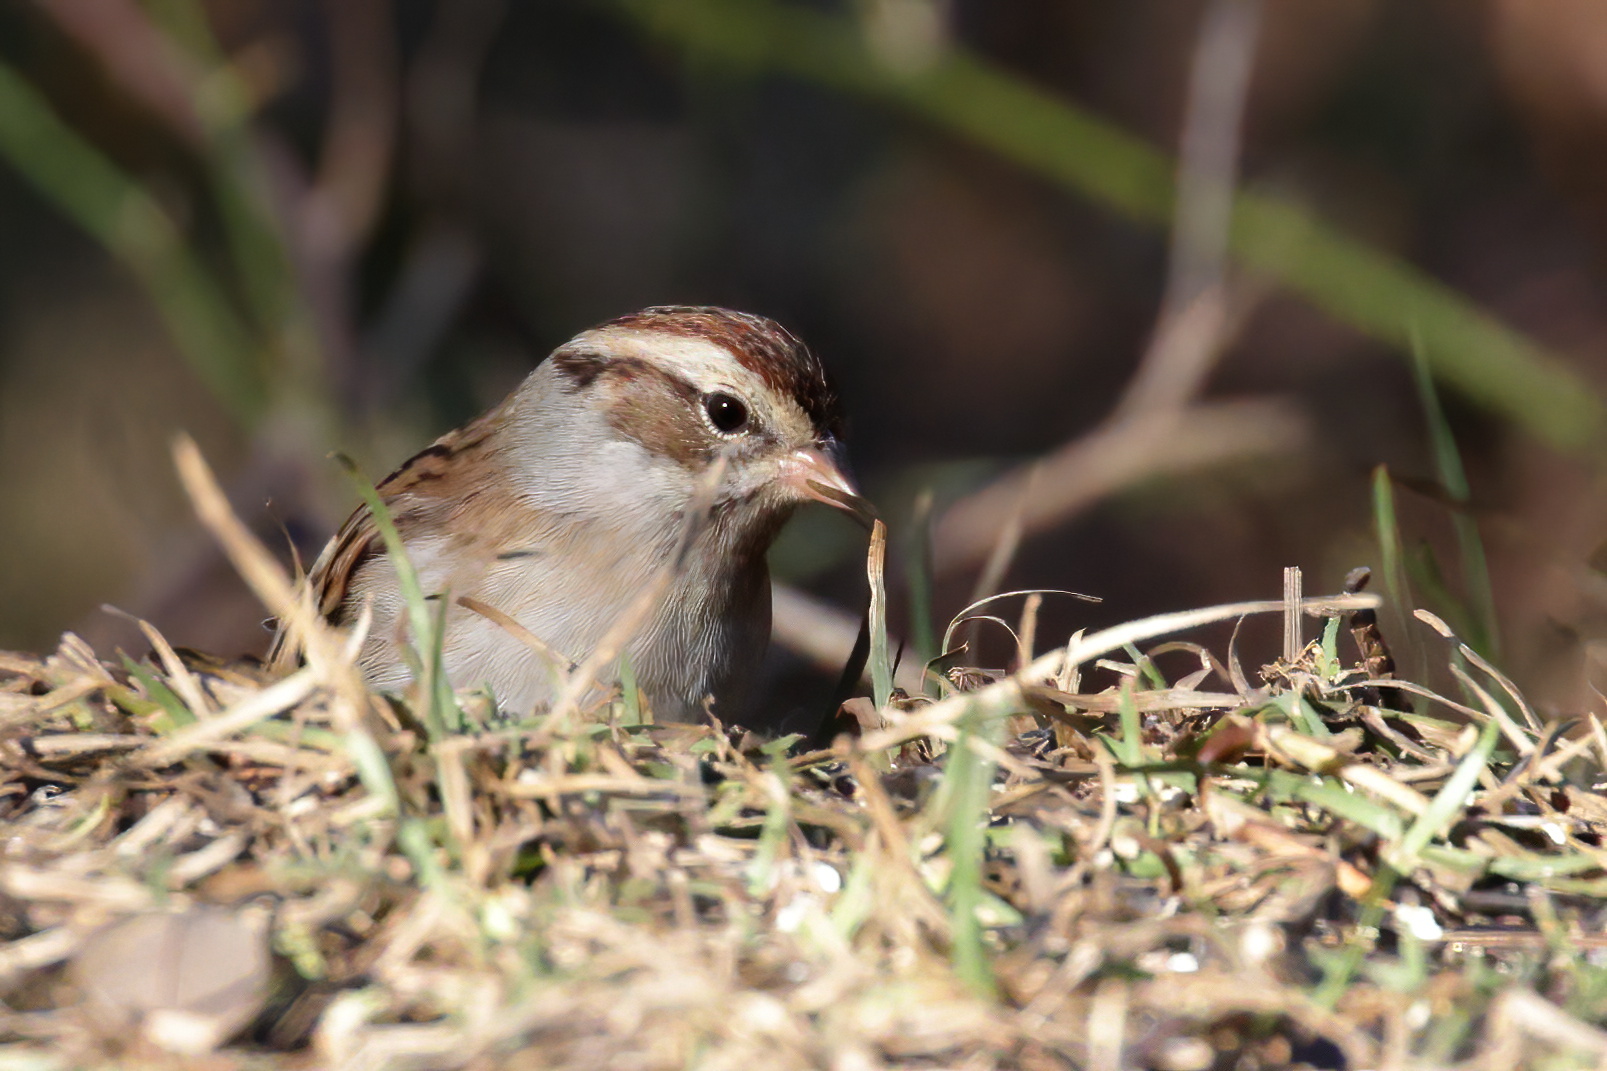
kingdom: Animalia
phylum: Chordata
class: Aves
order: Passeriformes
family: Passerellidae
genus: Spizella
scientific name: Spizella passerina
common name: Chipping sparrow
